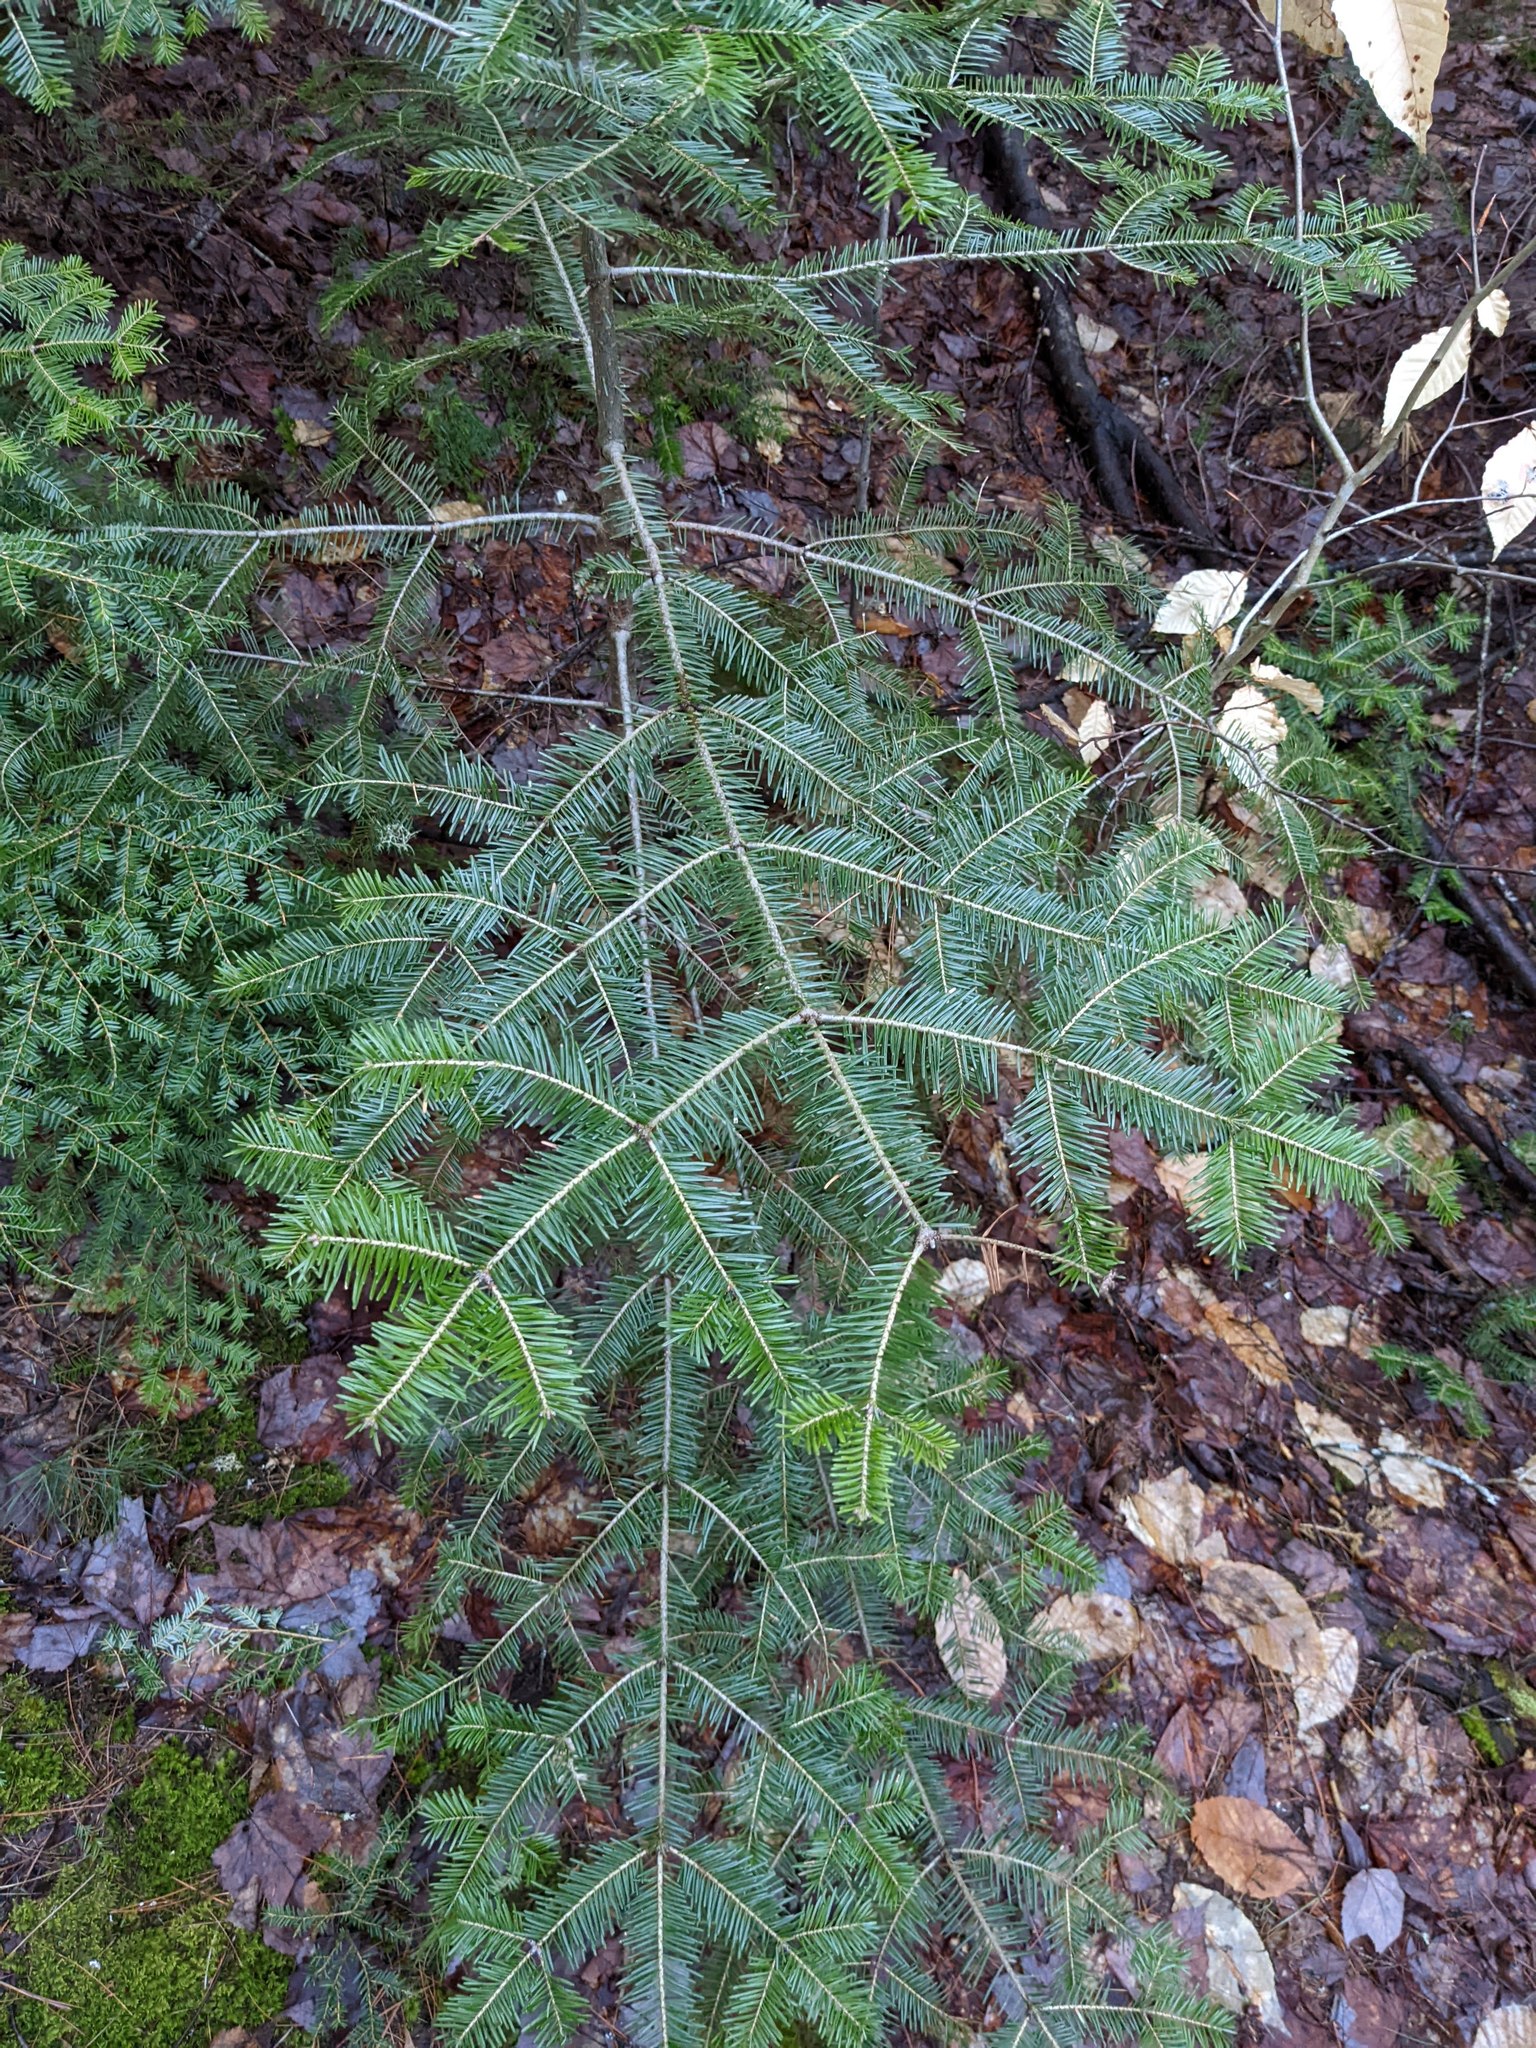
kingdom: Plantae
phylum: Tracheophyta
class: Pinopsida
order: Pinales
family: Pinaceae
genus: Abies
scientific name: Abies balsamea
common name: Balsam fir
